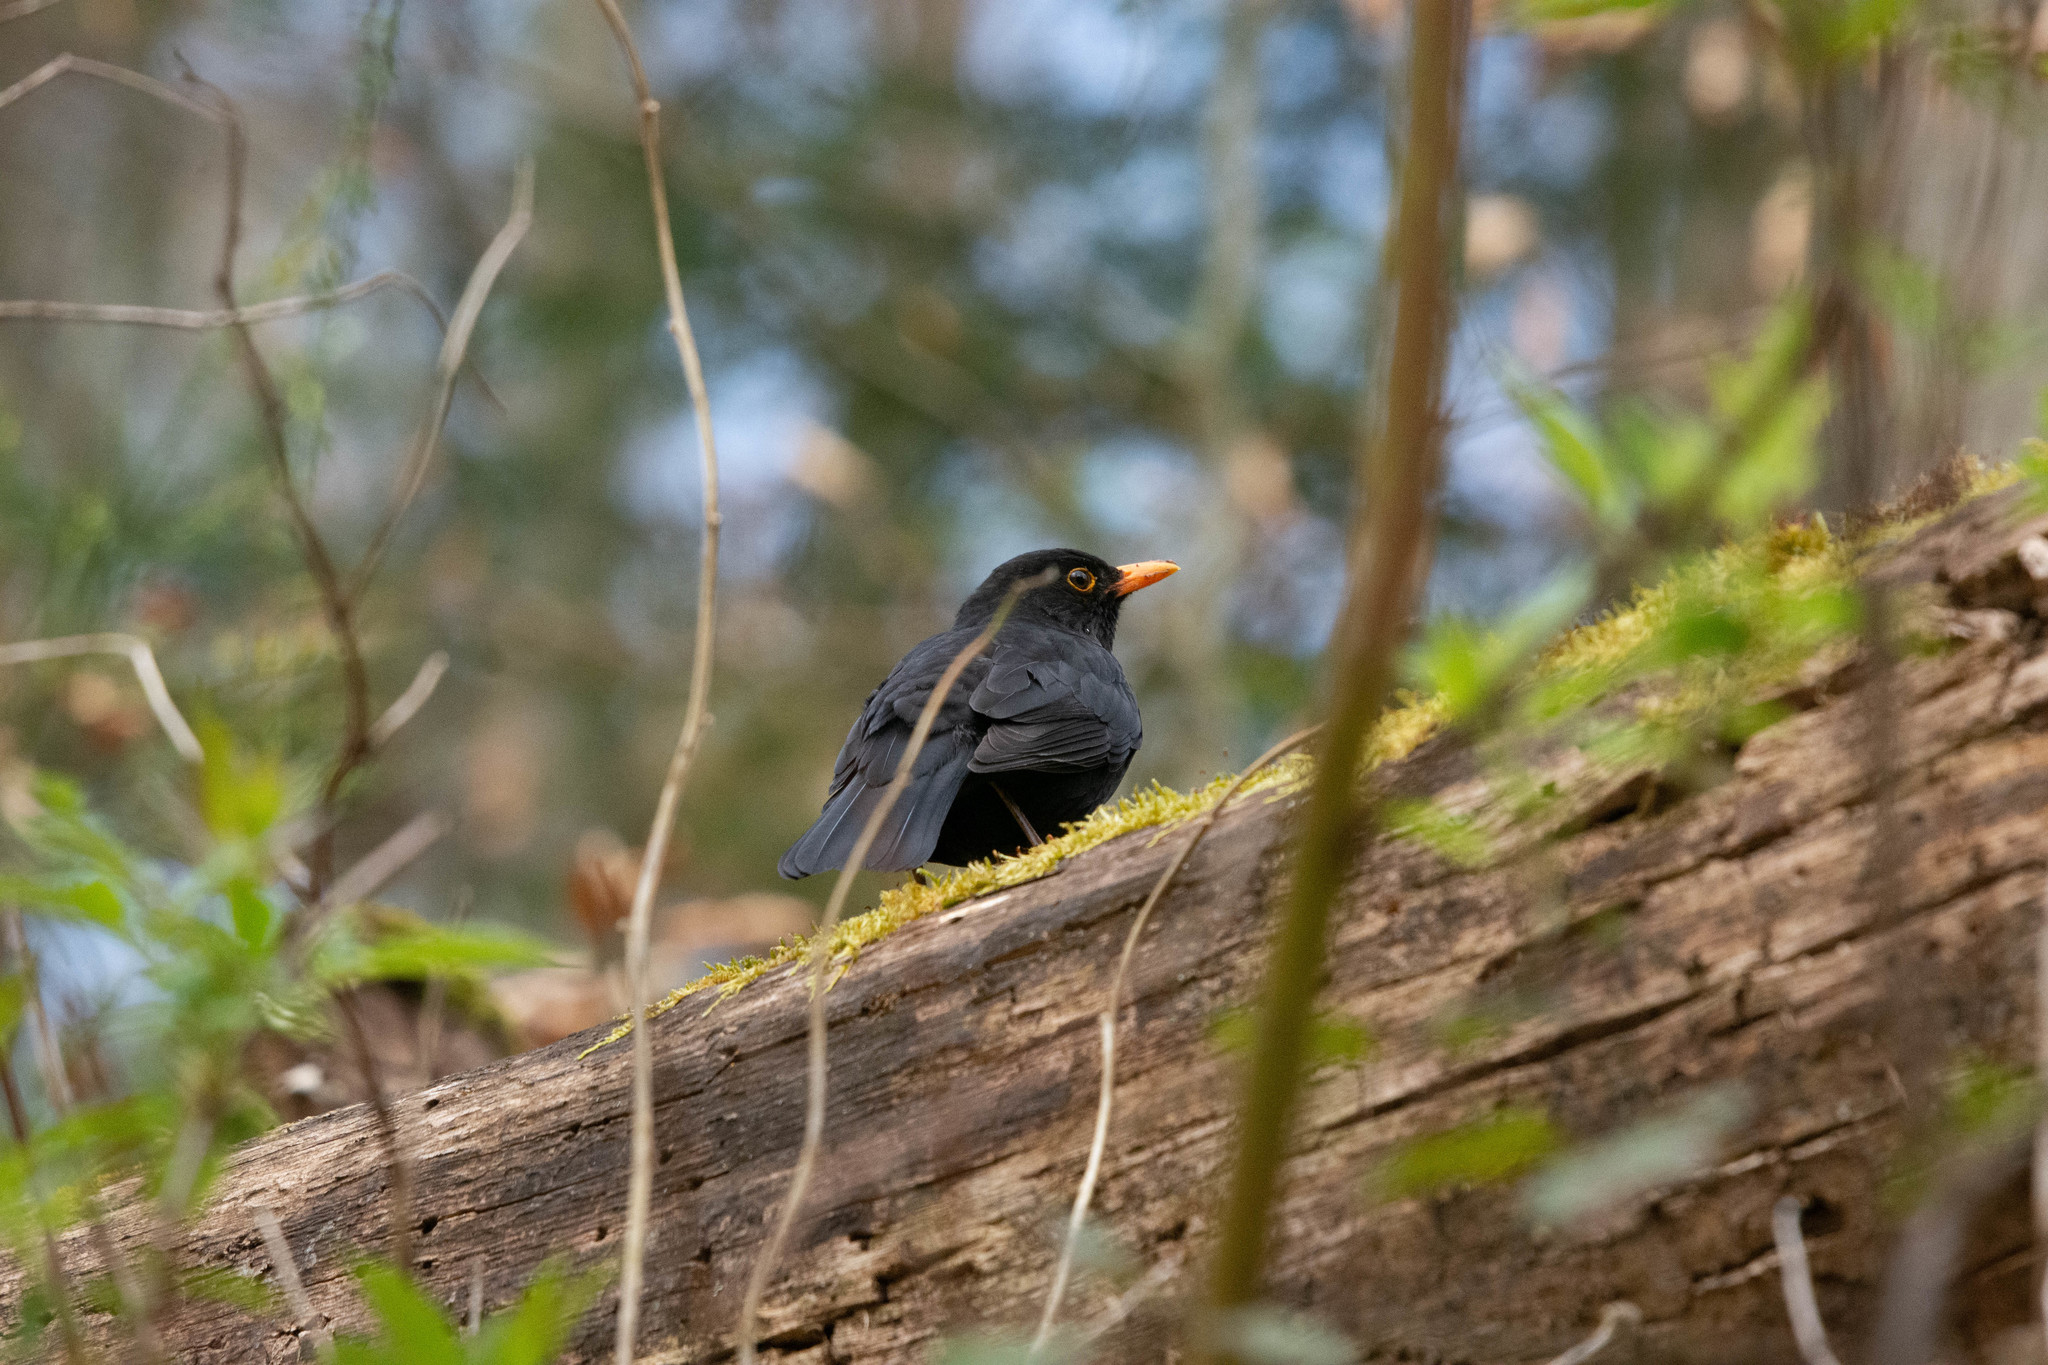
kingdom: Animalia
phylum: Chordata
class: Aves
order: Passeriformes
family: Turdidae
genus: Turdus
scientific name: Turdus merula
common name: Common blackbird
